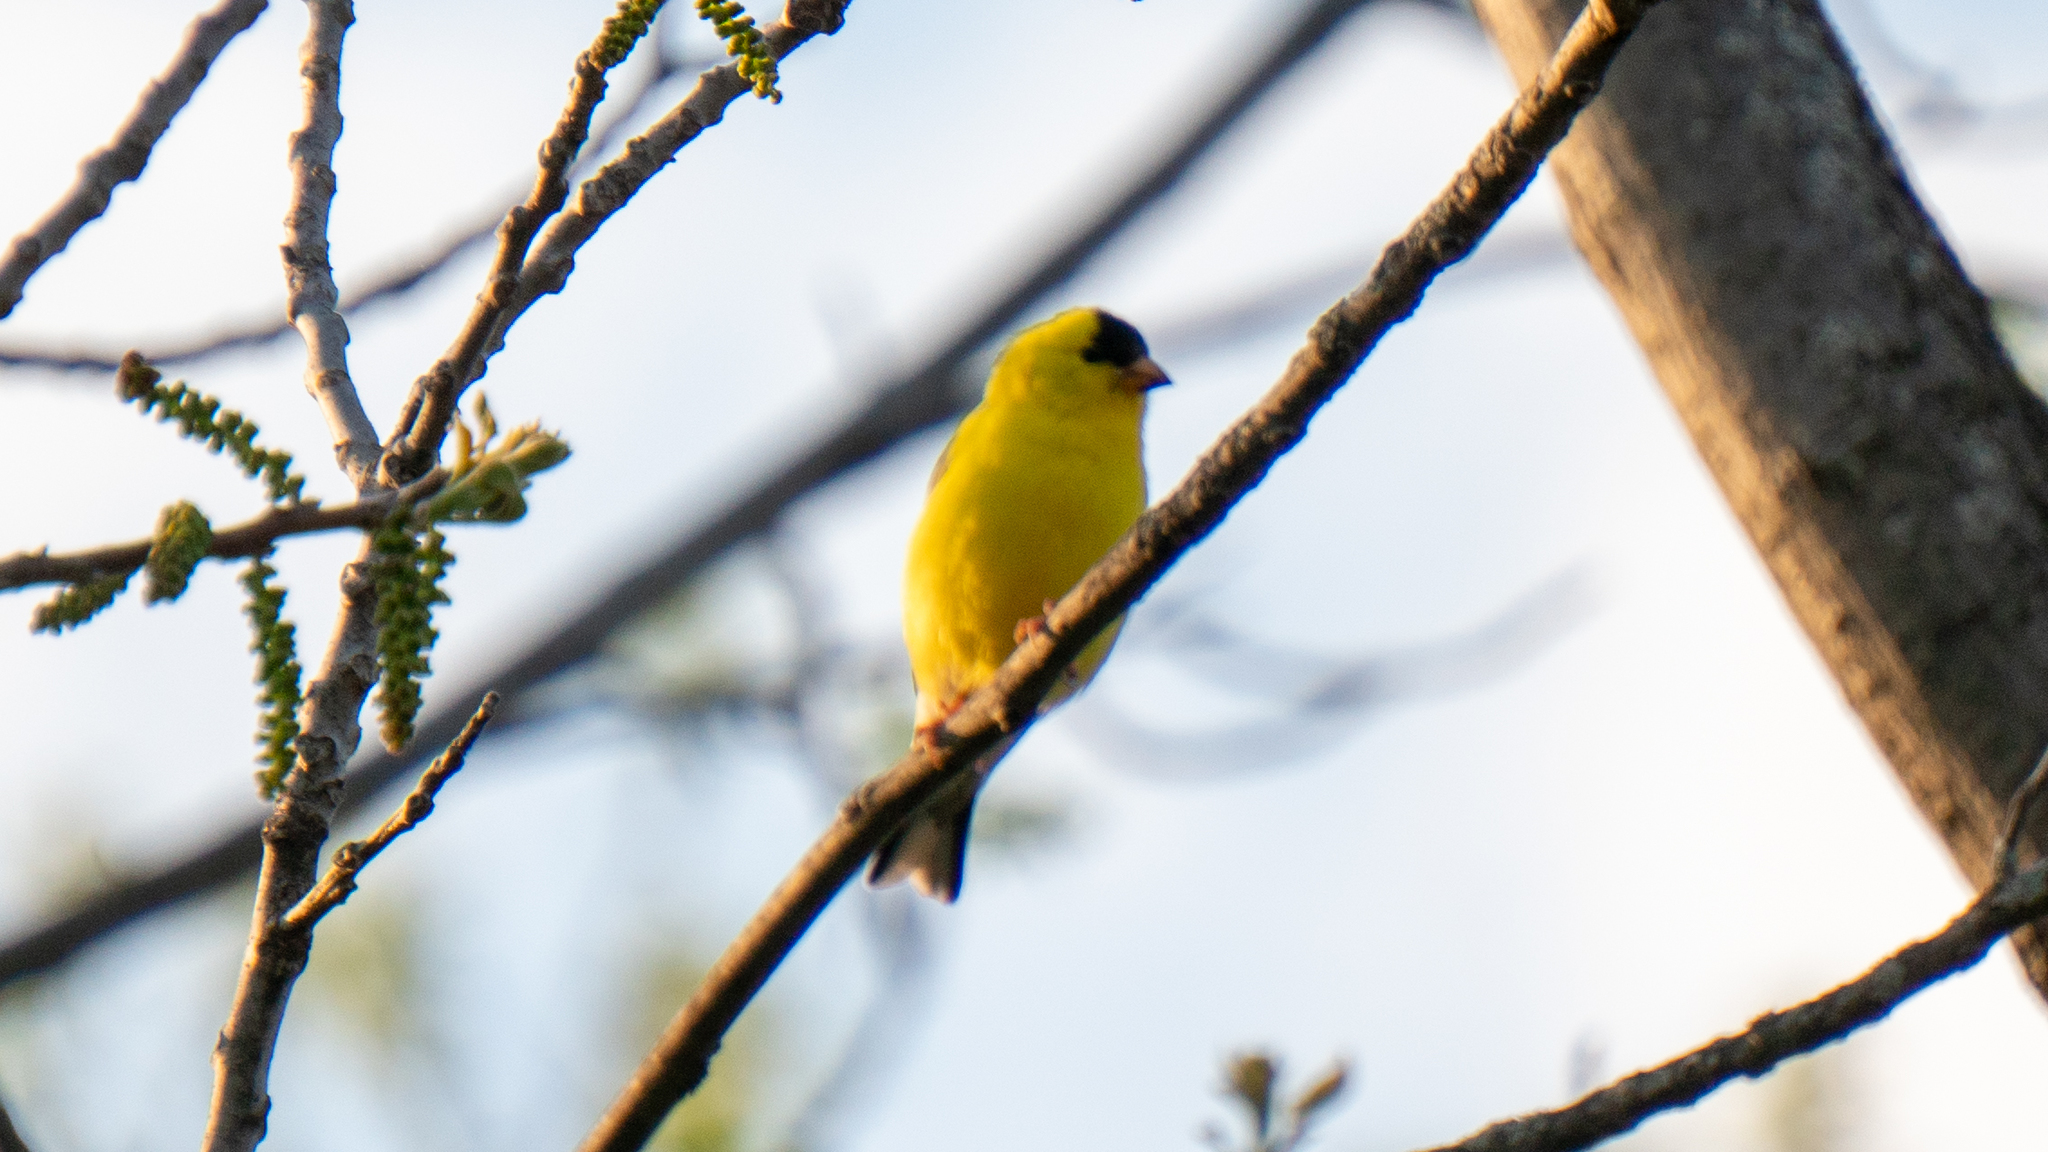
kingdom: Animalia
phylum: Chordata
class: Aves
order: Passeriformes
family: Fringillidae
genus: Spinus
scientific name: Spinus tristis
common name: American goldfinch
